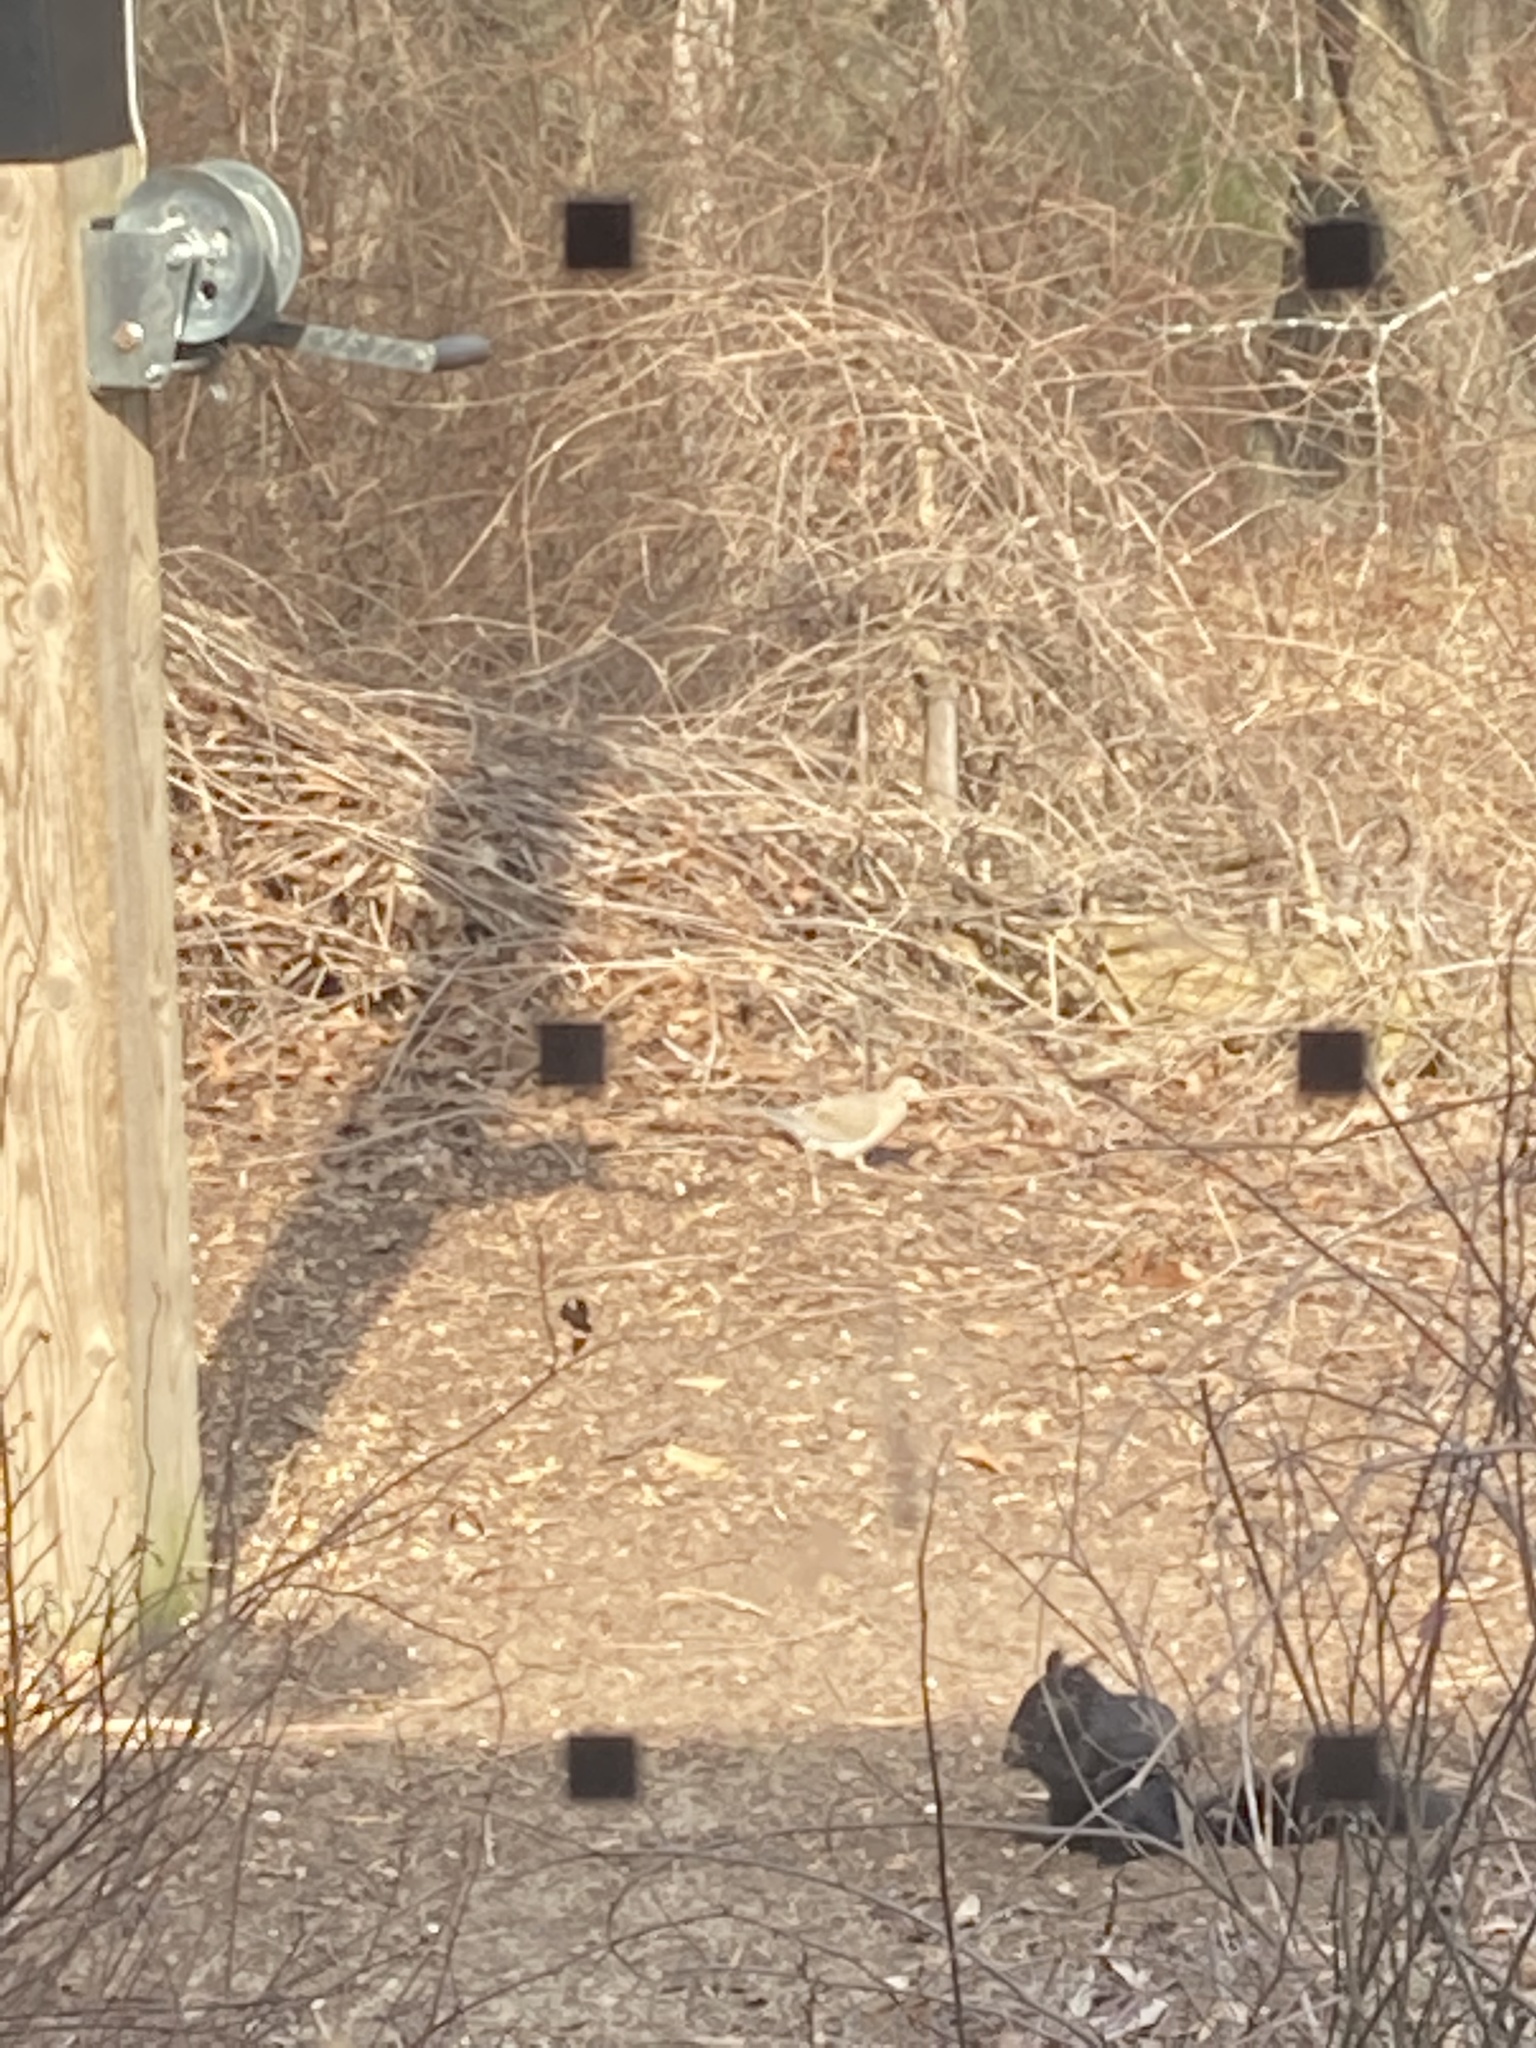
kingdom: Animalia
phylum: Chordata
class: Aves
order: Columbiformes
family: Columbidae
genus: Zenaida
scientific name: Zenaida macroura
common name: Mourning dove
